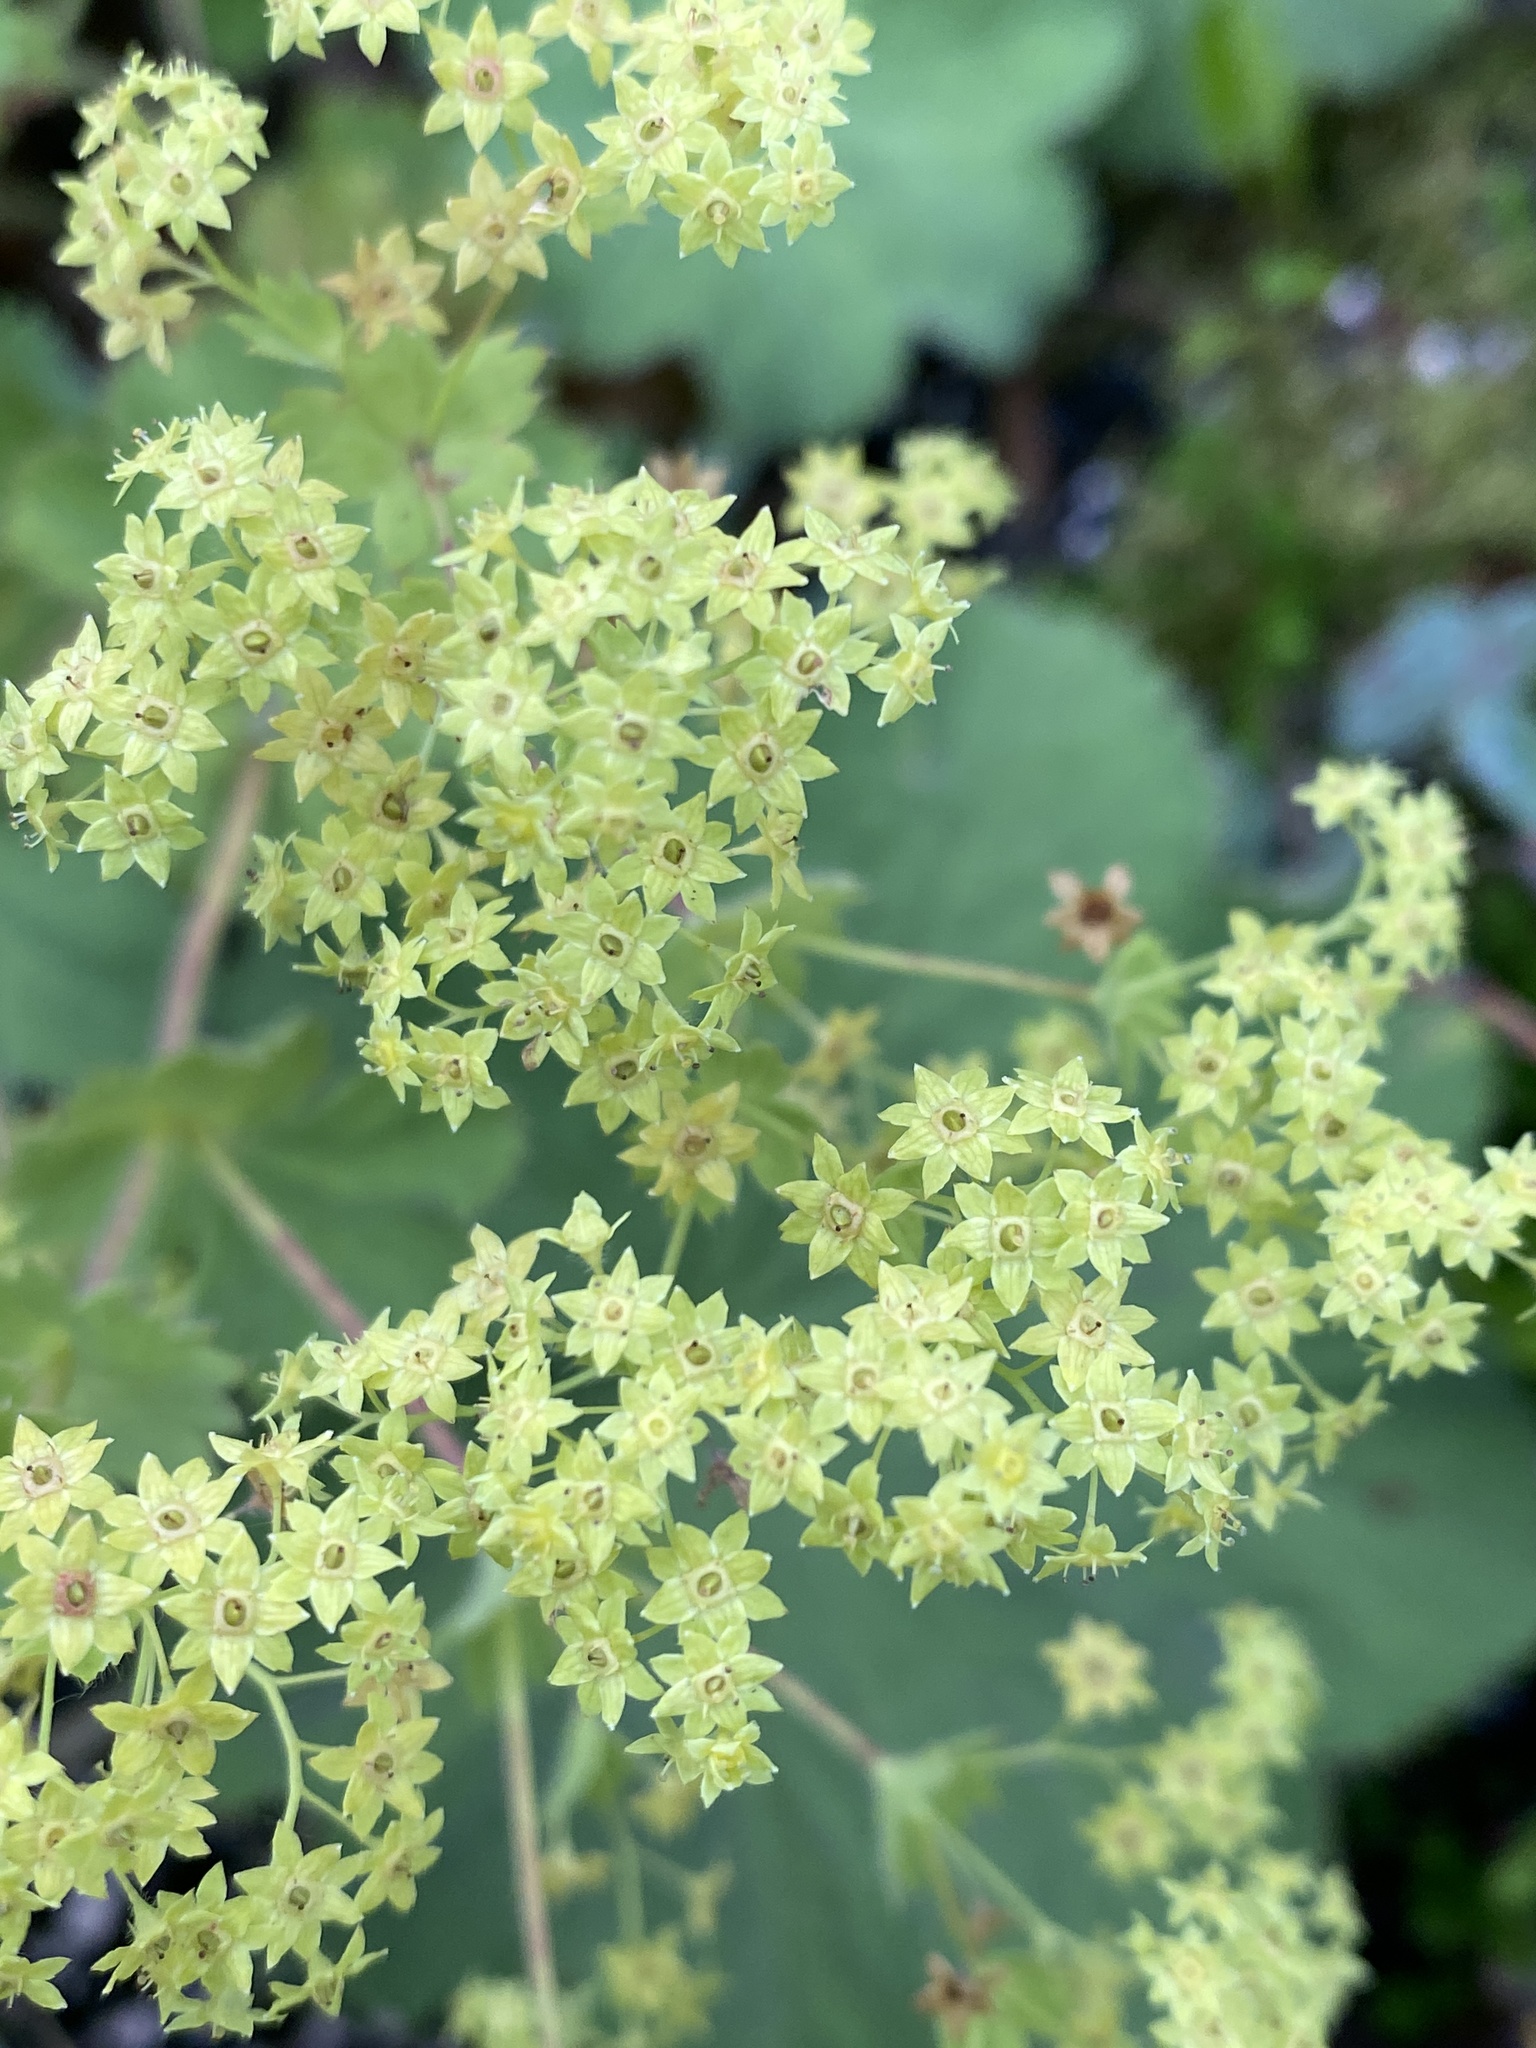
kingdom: Plantae
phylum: Tracheophyta
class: Magnoliopsida
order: Rosales
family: Rosaceae
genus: Alchemilla
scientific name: Alchemilla mollis
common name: Lady's-mantle
